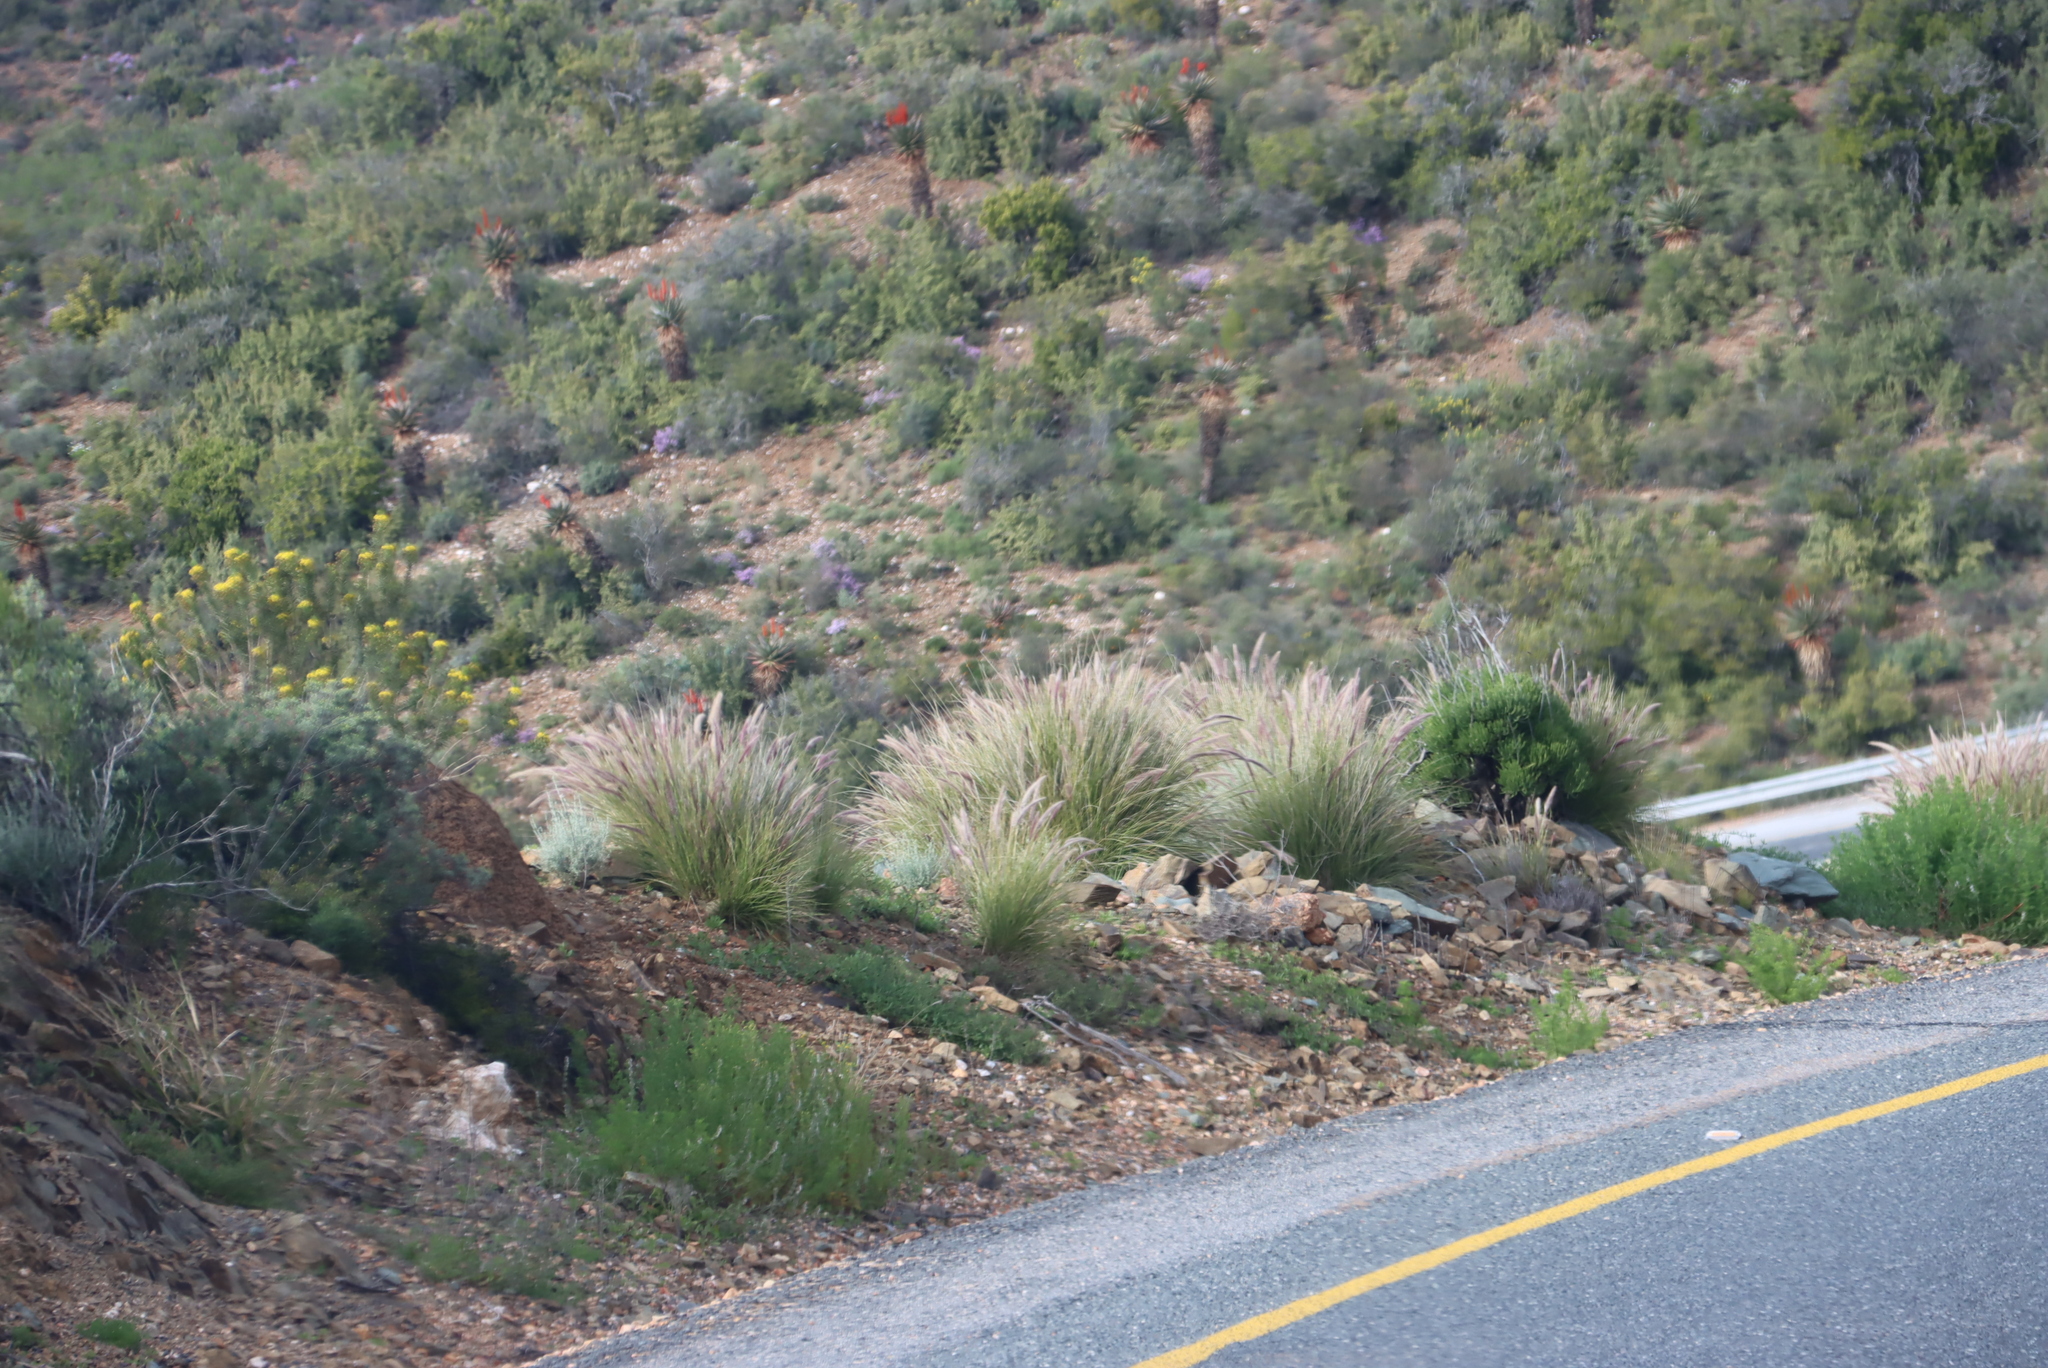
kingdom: Plantae
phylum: Tracheophyta
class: Liliopsida
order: Poales
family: Poaceae
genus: Cenchrus
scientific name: Cenchrus setaceus
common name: Crimson fountaingrass
